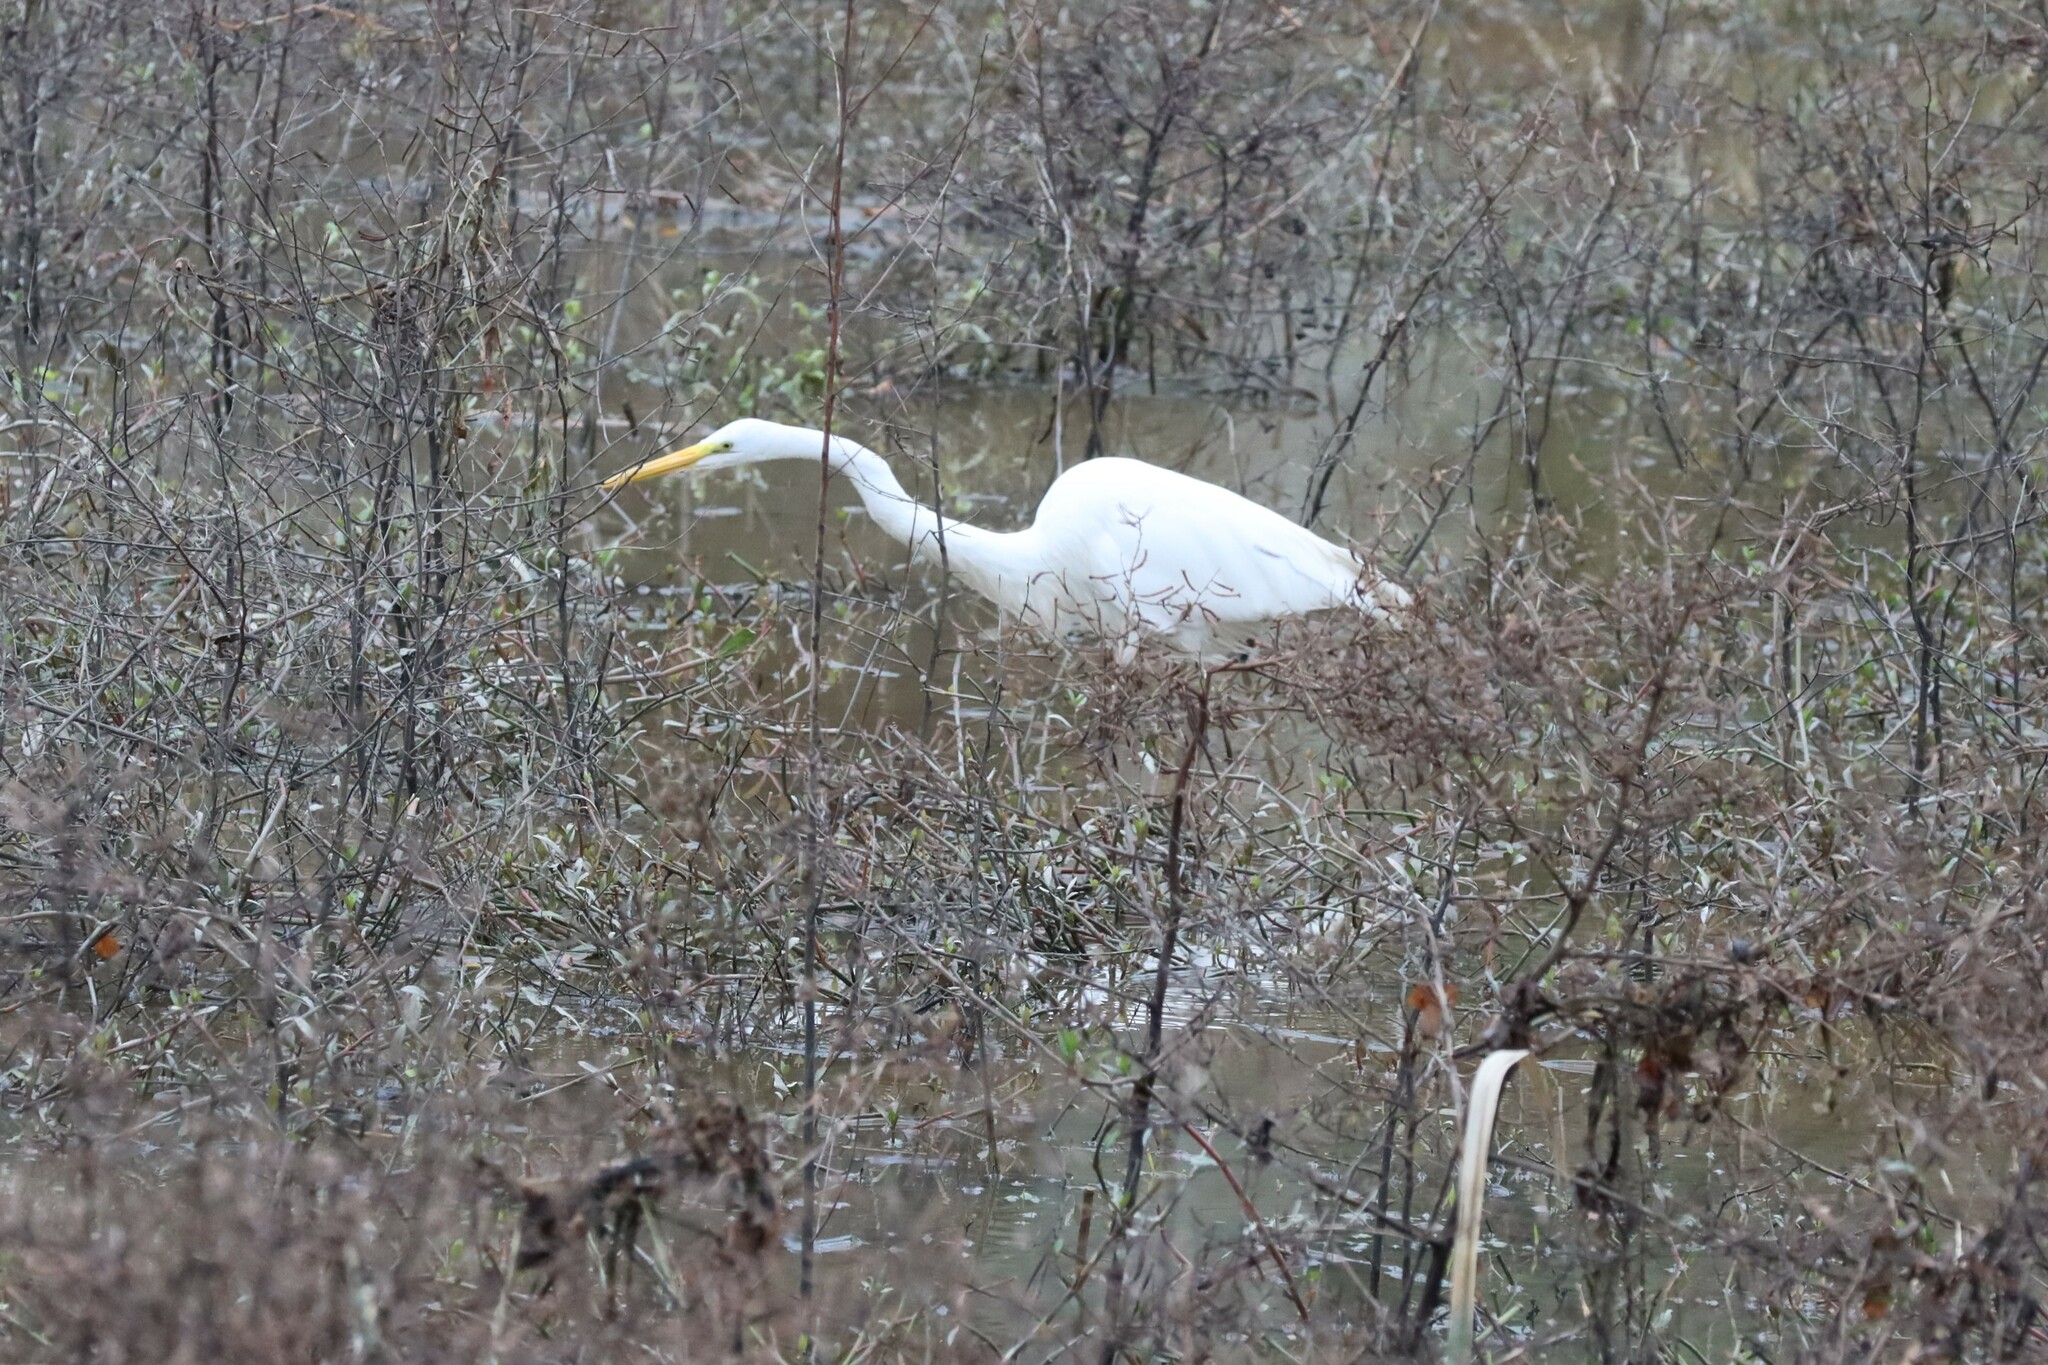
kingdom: Animalia
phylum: Chordata
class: Aves
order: Pelecaniformes
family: Ardeidae
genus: Ardea
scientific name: Ardea alba
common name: Great egret
